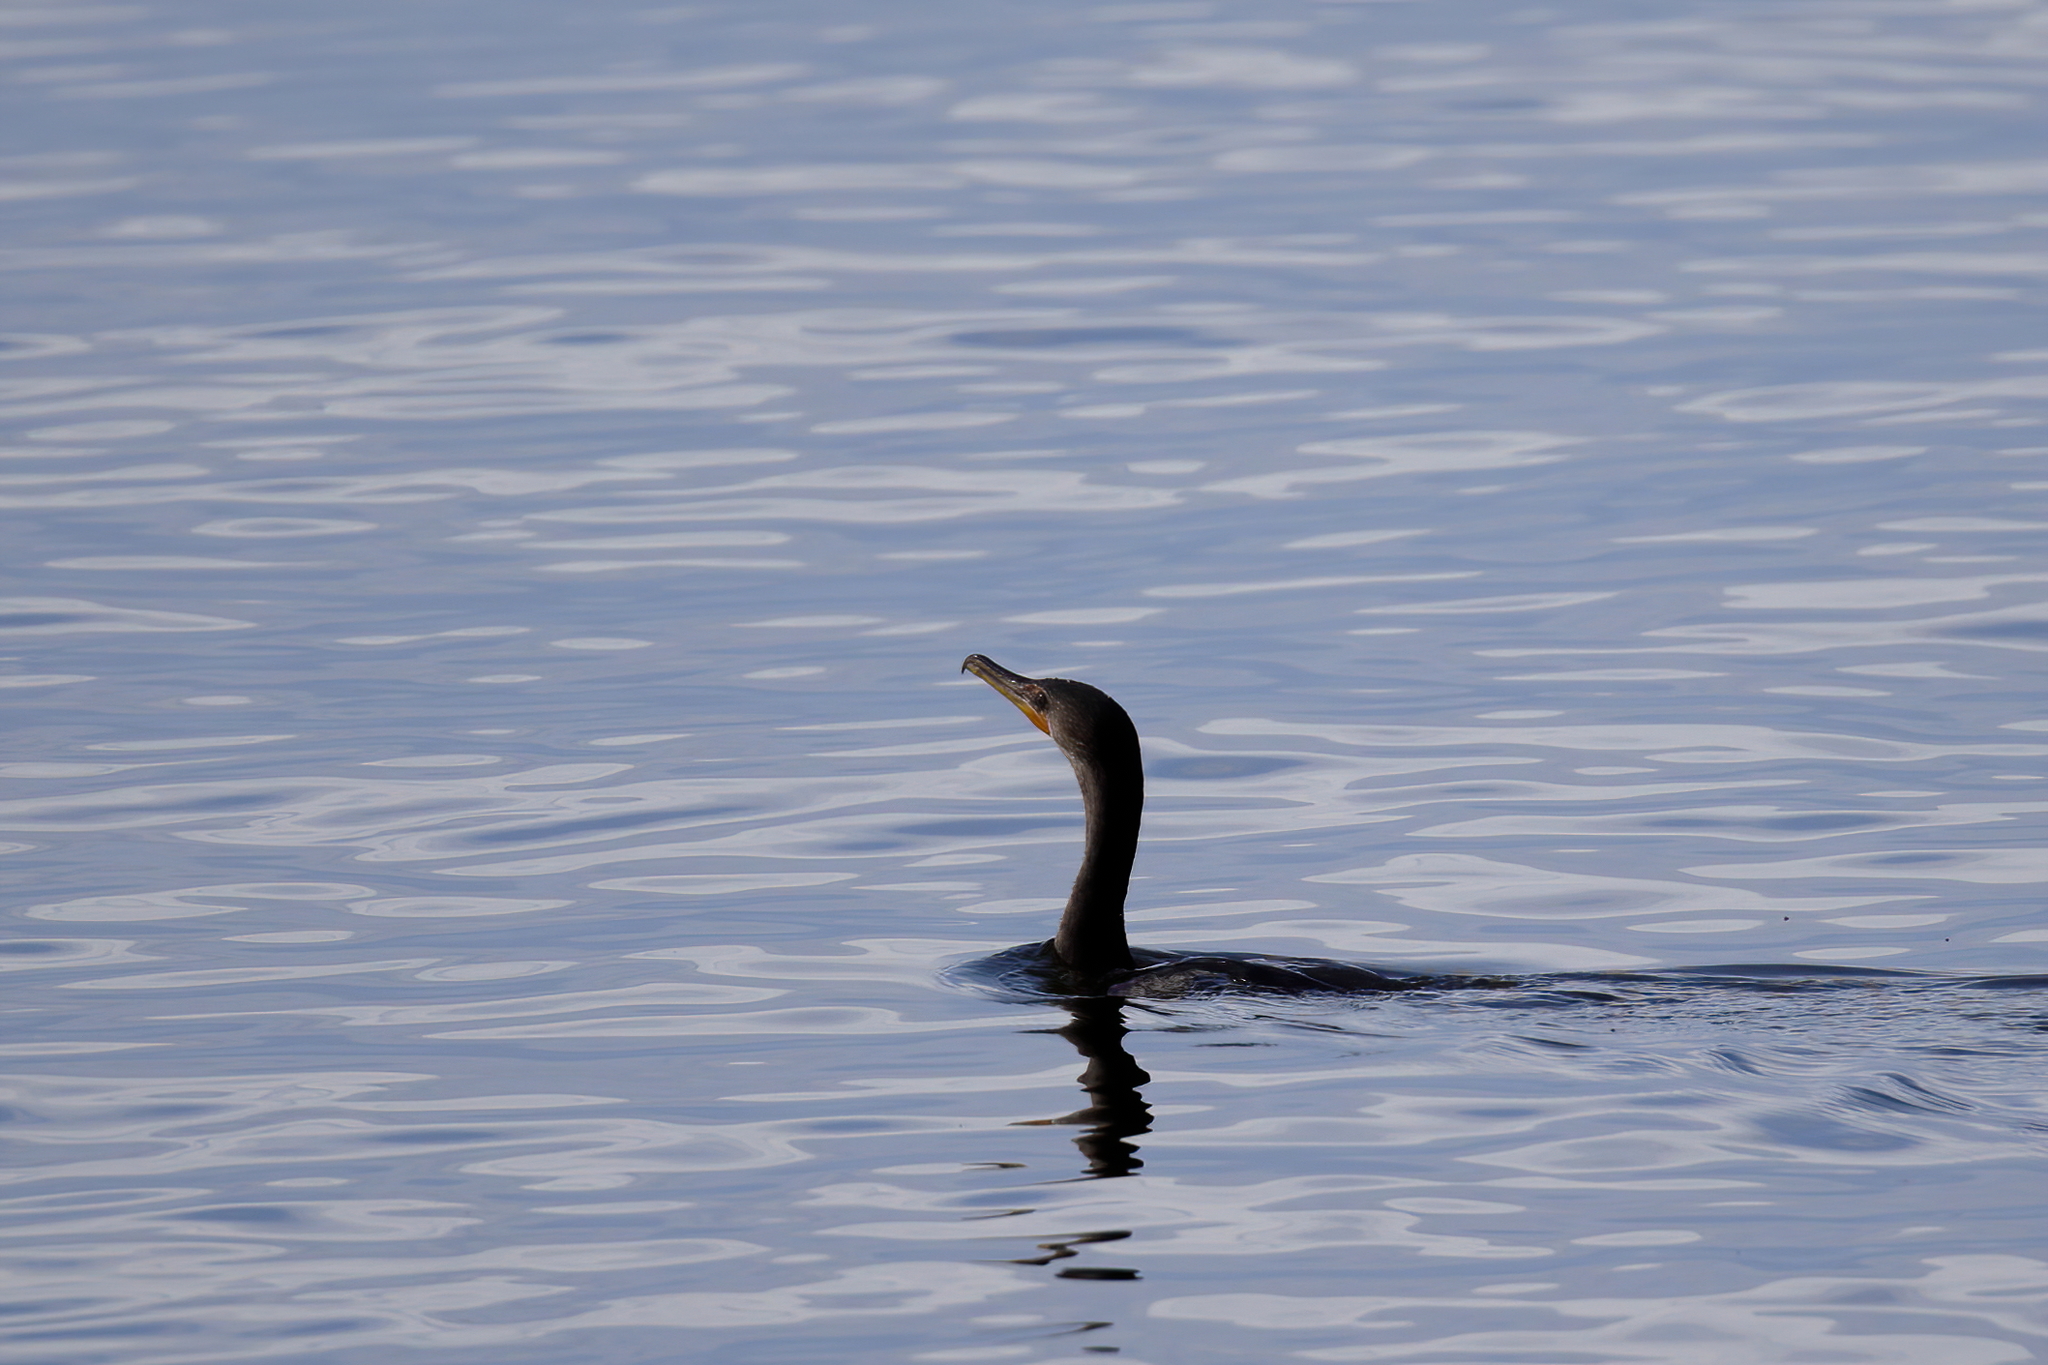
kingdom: Animalia
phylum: Chordata
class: Aves
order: Suliformes
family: Phalacrocoracidae
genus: Phalacrocorax
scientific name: Phalacrocorax auritus
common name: Double-crested cormorant
